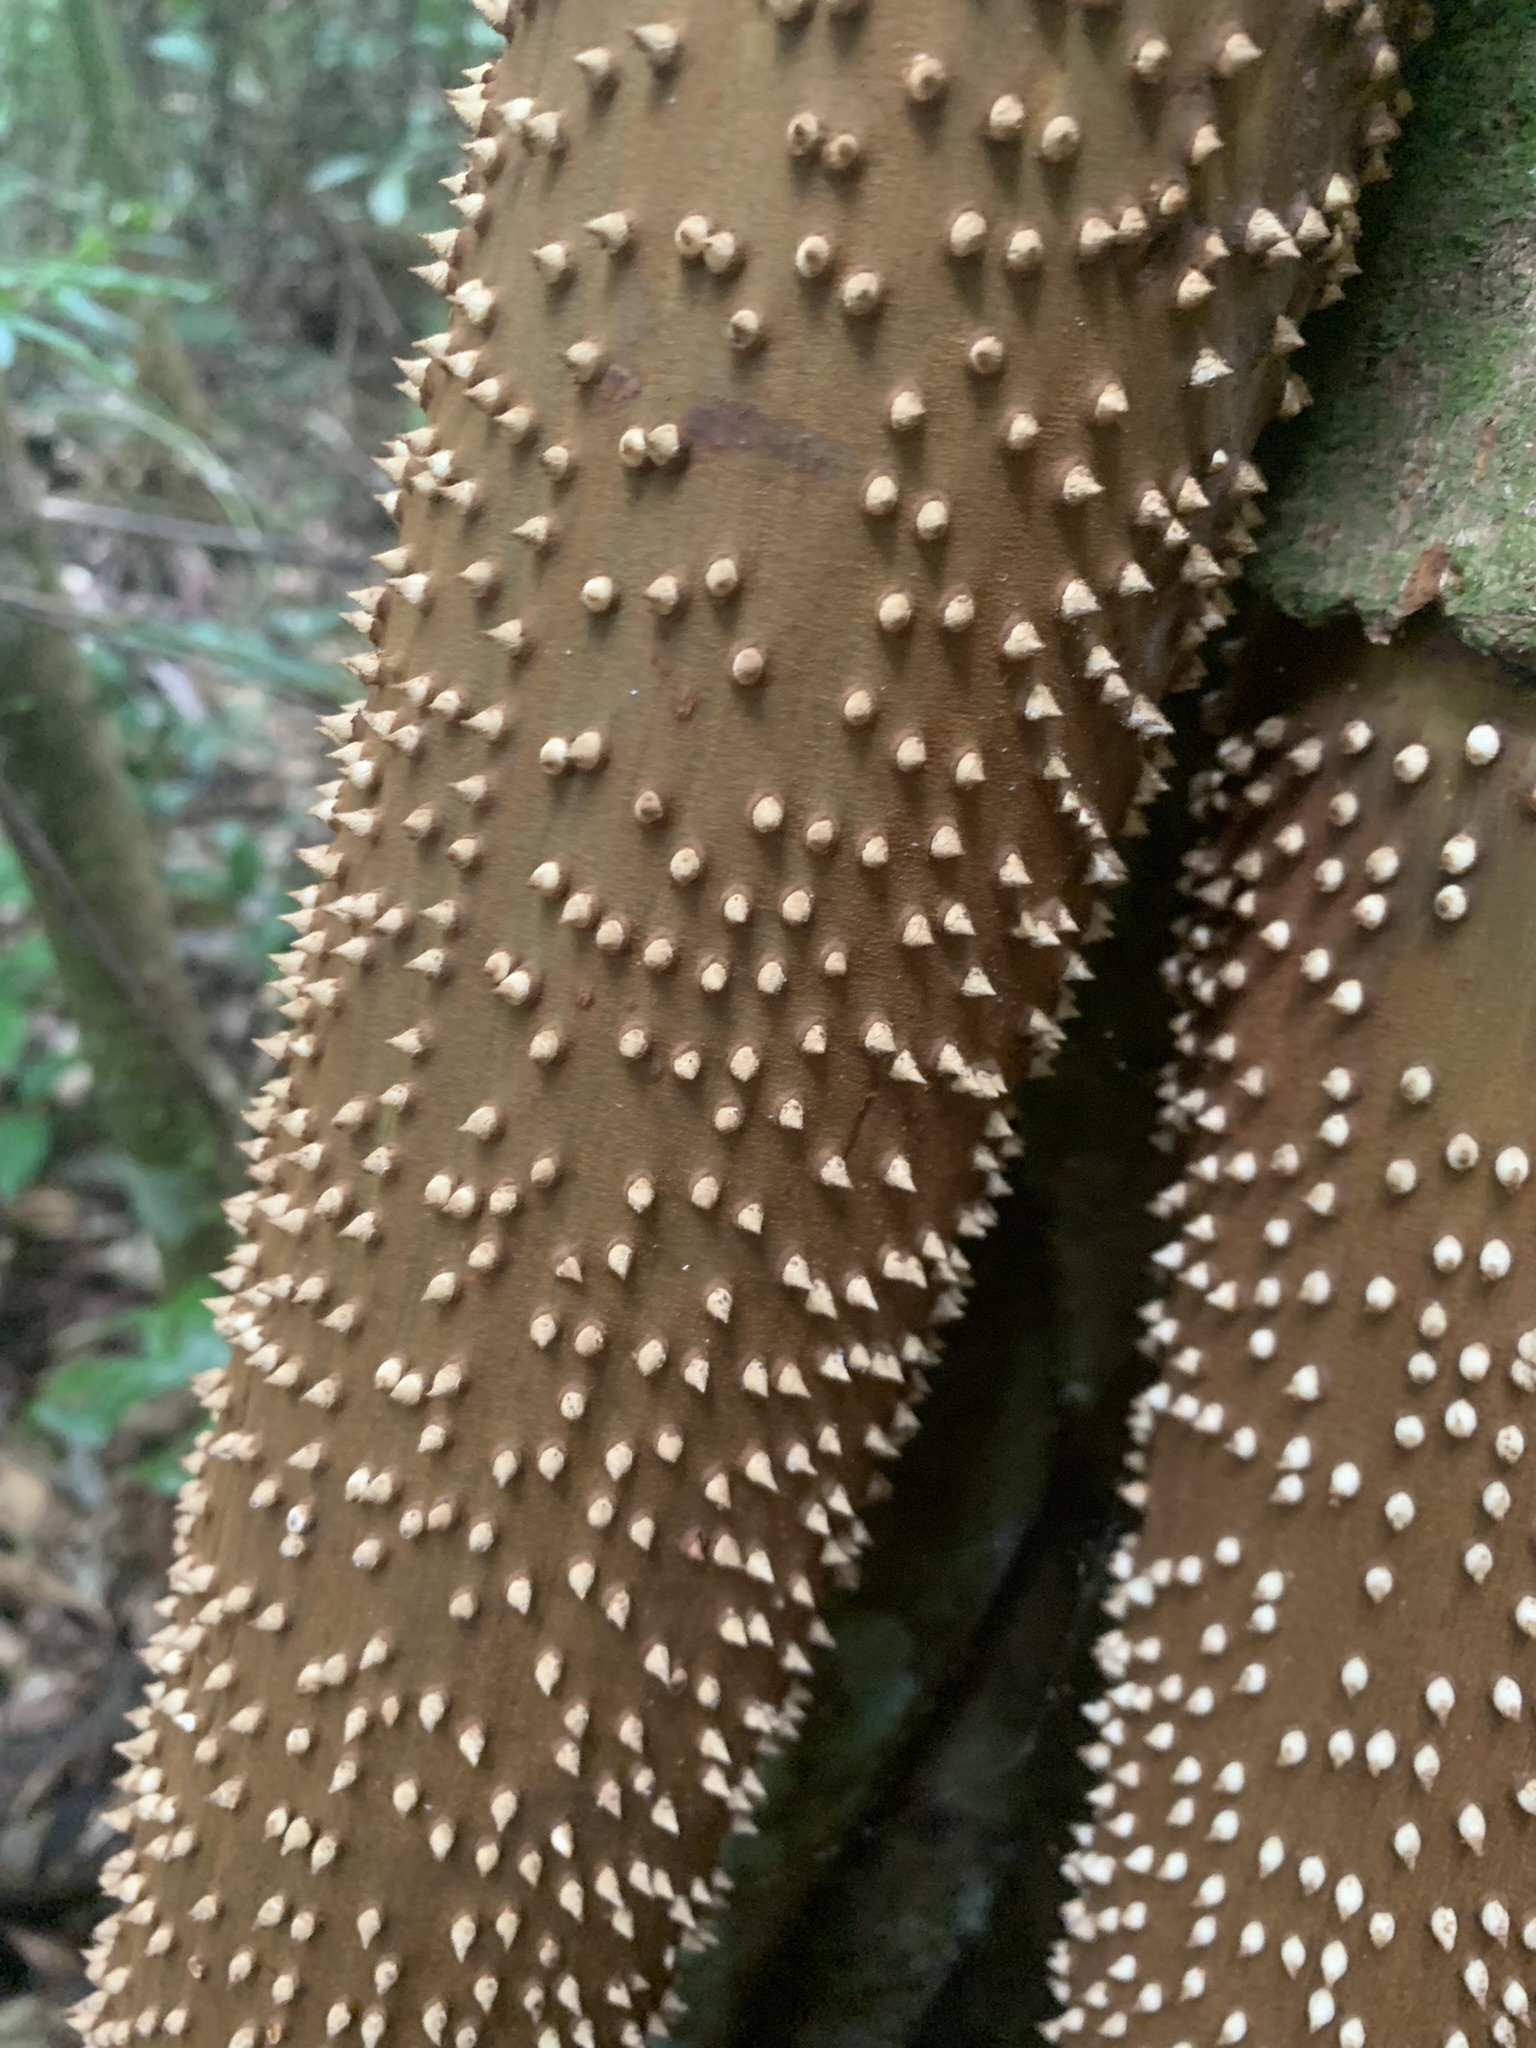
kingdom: Plantae
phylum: Tracheophyta
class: Liliopsida
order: Arecales
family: Arecaceae
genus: Socratea
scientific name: Socratea exorrhiza
